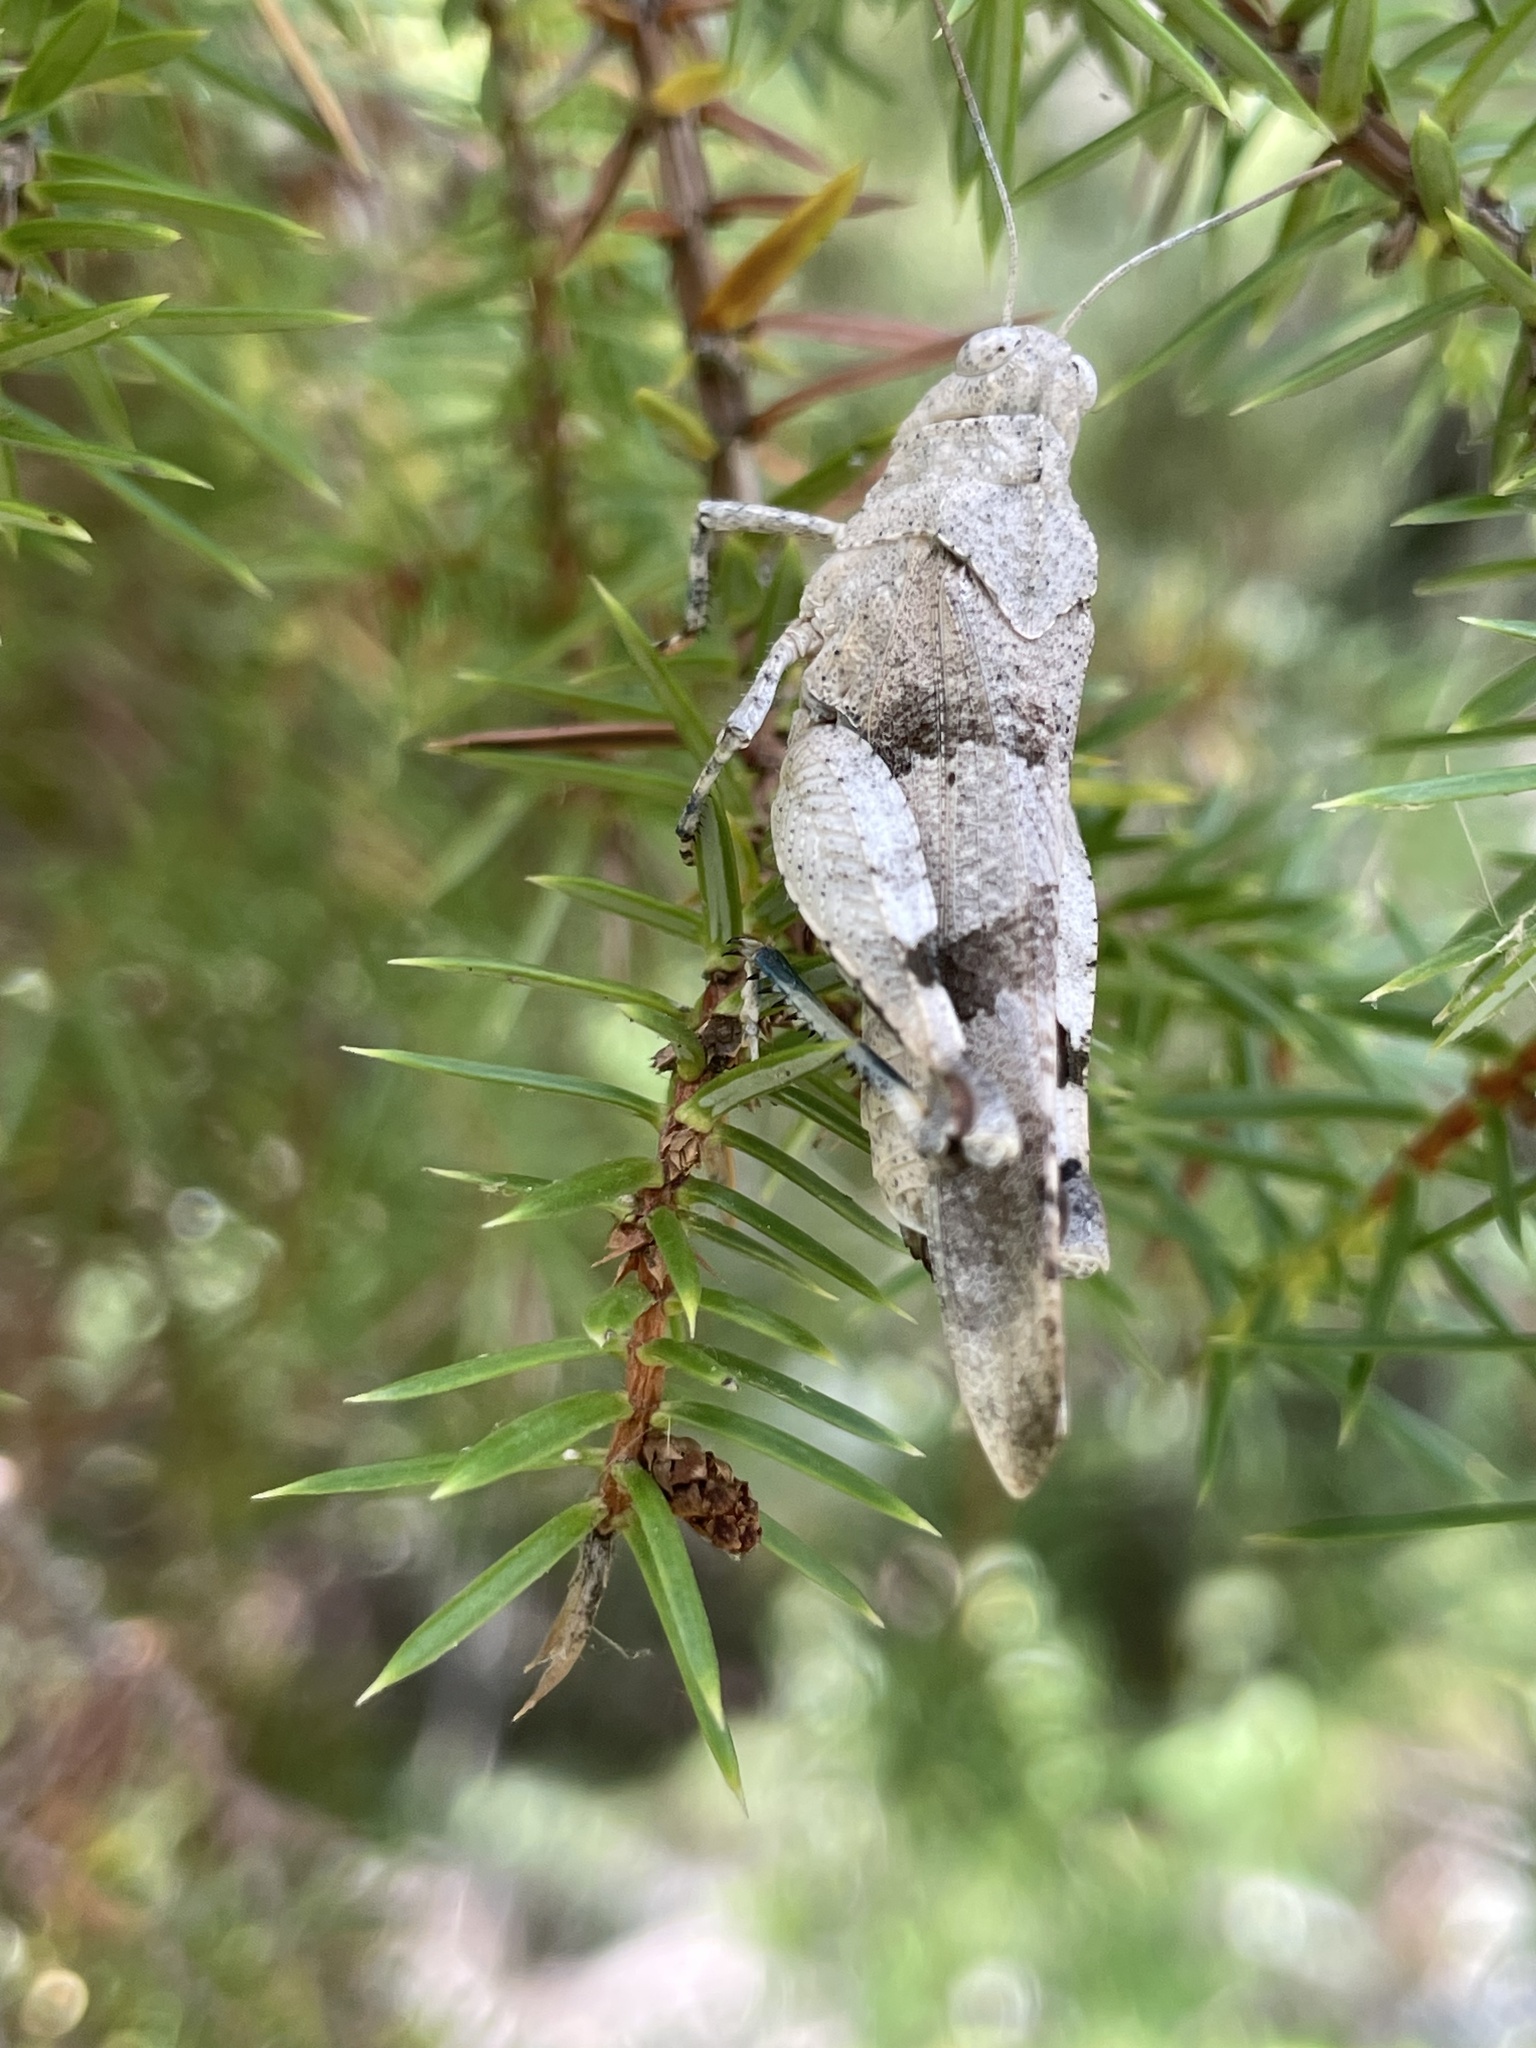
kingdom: Animalia
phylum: Arthropoda
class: Insecta
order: Orthoptera
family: Acrididae
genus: Oedipoda
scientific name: Oedipoda caerulescens
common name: Blue-winged grasshopper
